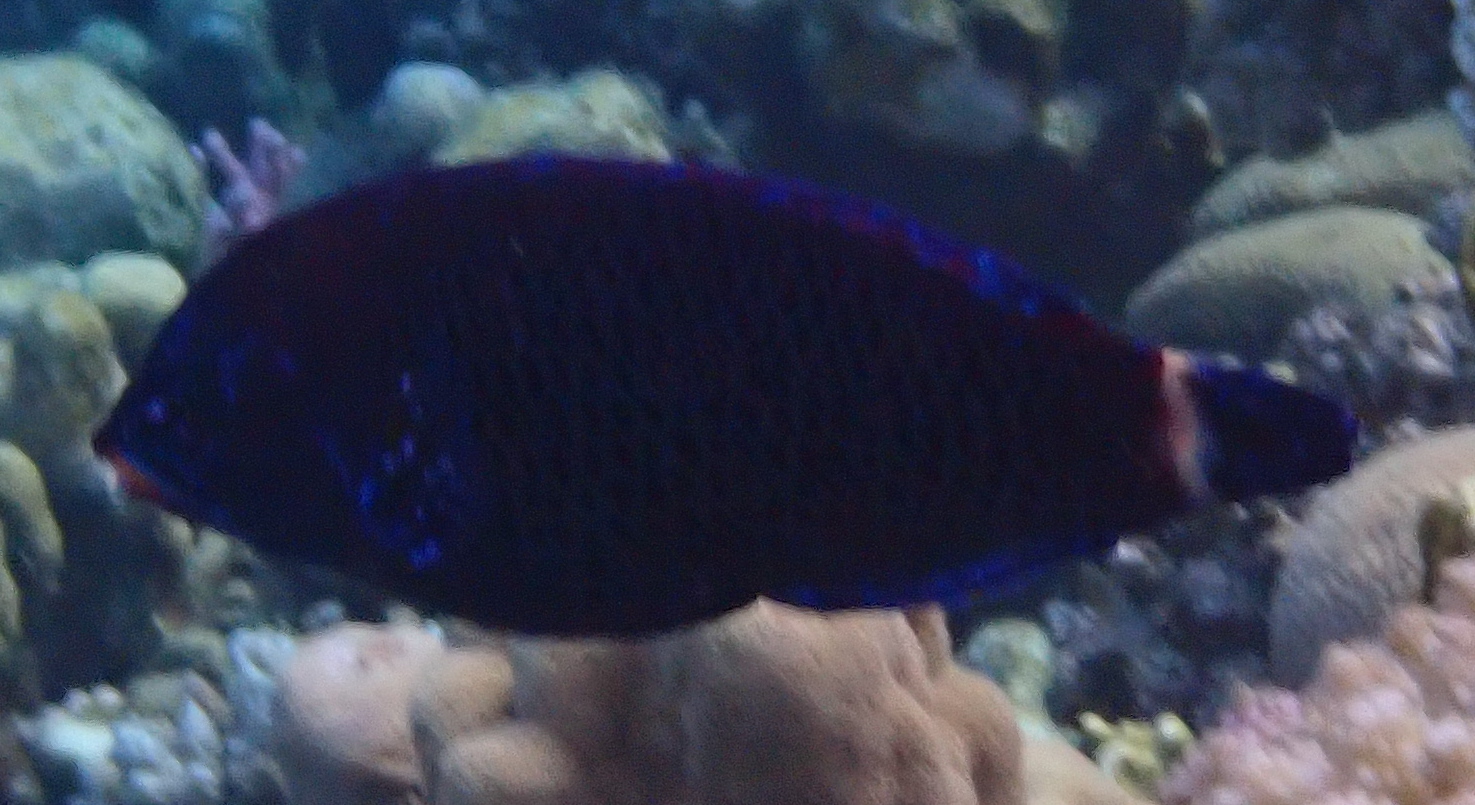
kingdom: Animalia
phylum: Chordata
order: Perciformes
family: Labridae
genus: Pseudodax
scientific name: Pseudodax moluccanus
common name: Chiseltooth wrasse
